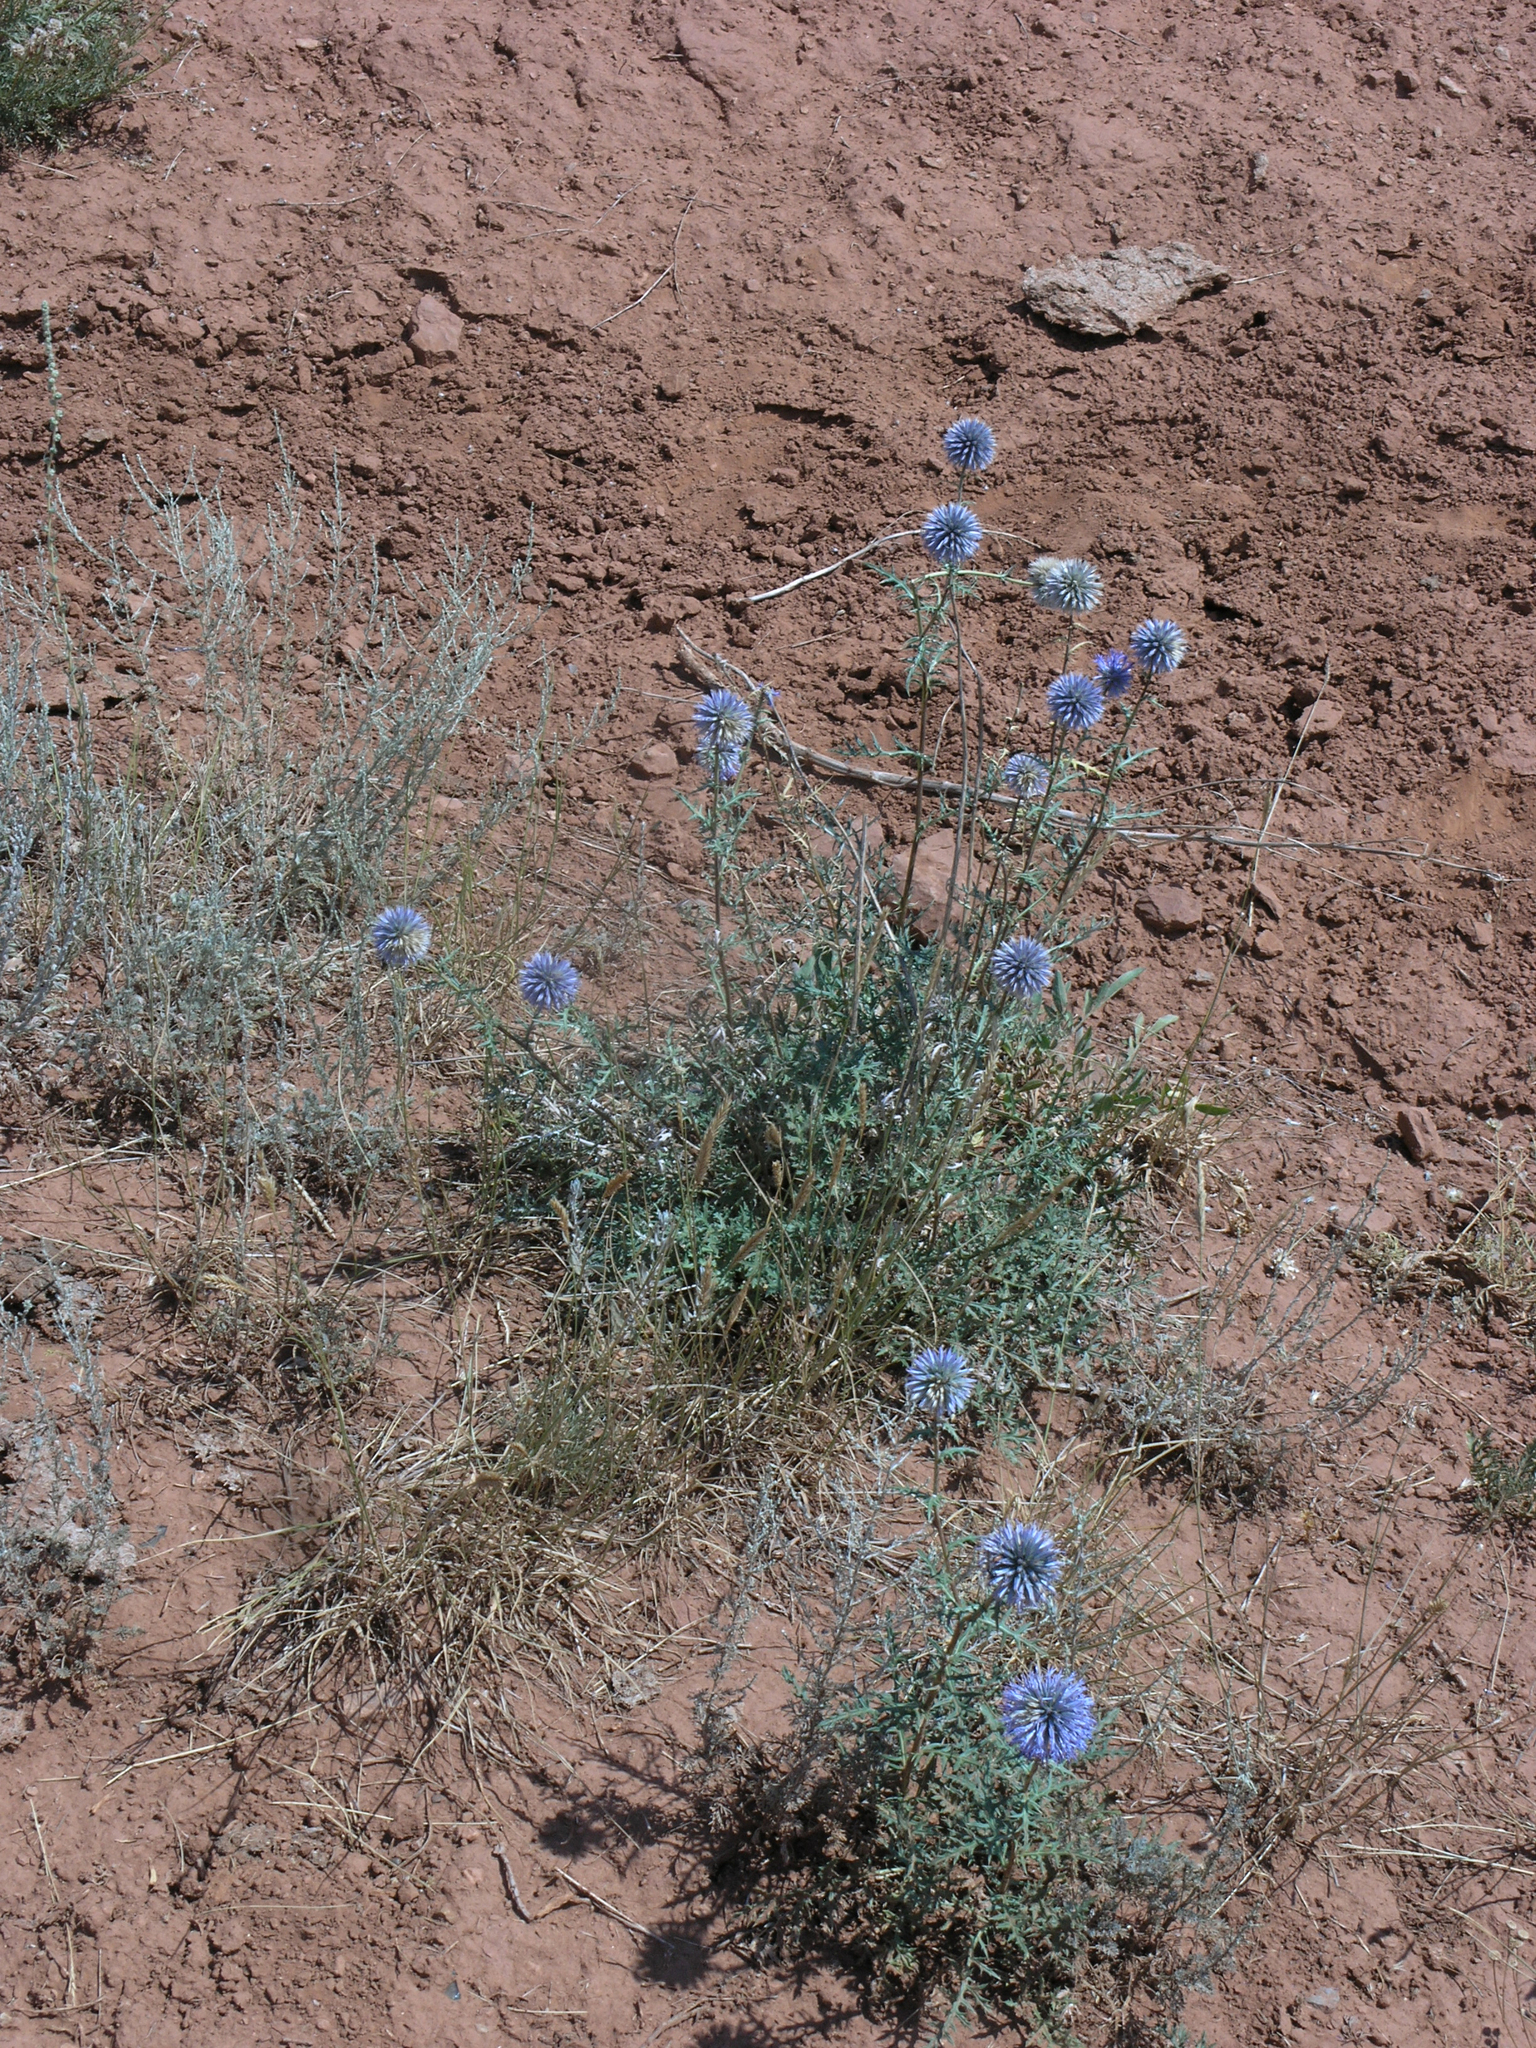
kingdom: Plantae
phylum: Tracheophyta
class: Magnoliopsida
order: Asterales
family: Asteraceae
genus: Echinops
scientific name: Echinops ritro
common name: Globe thistle
